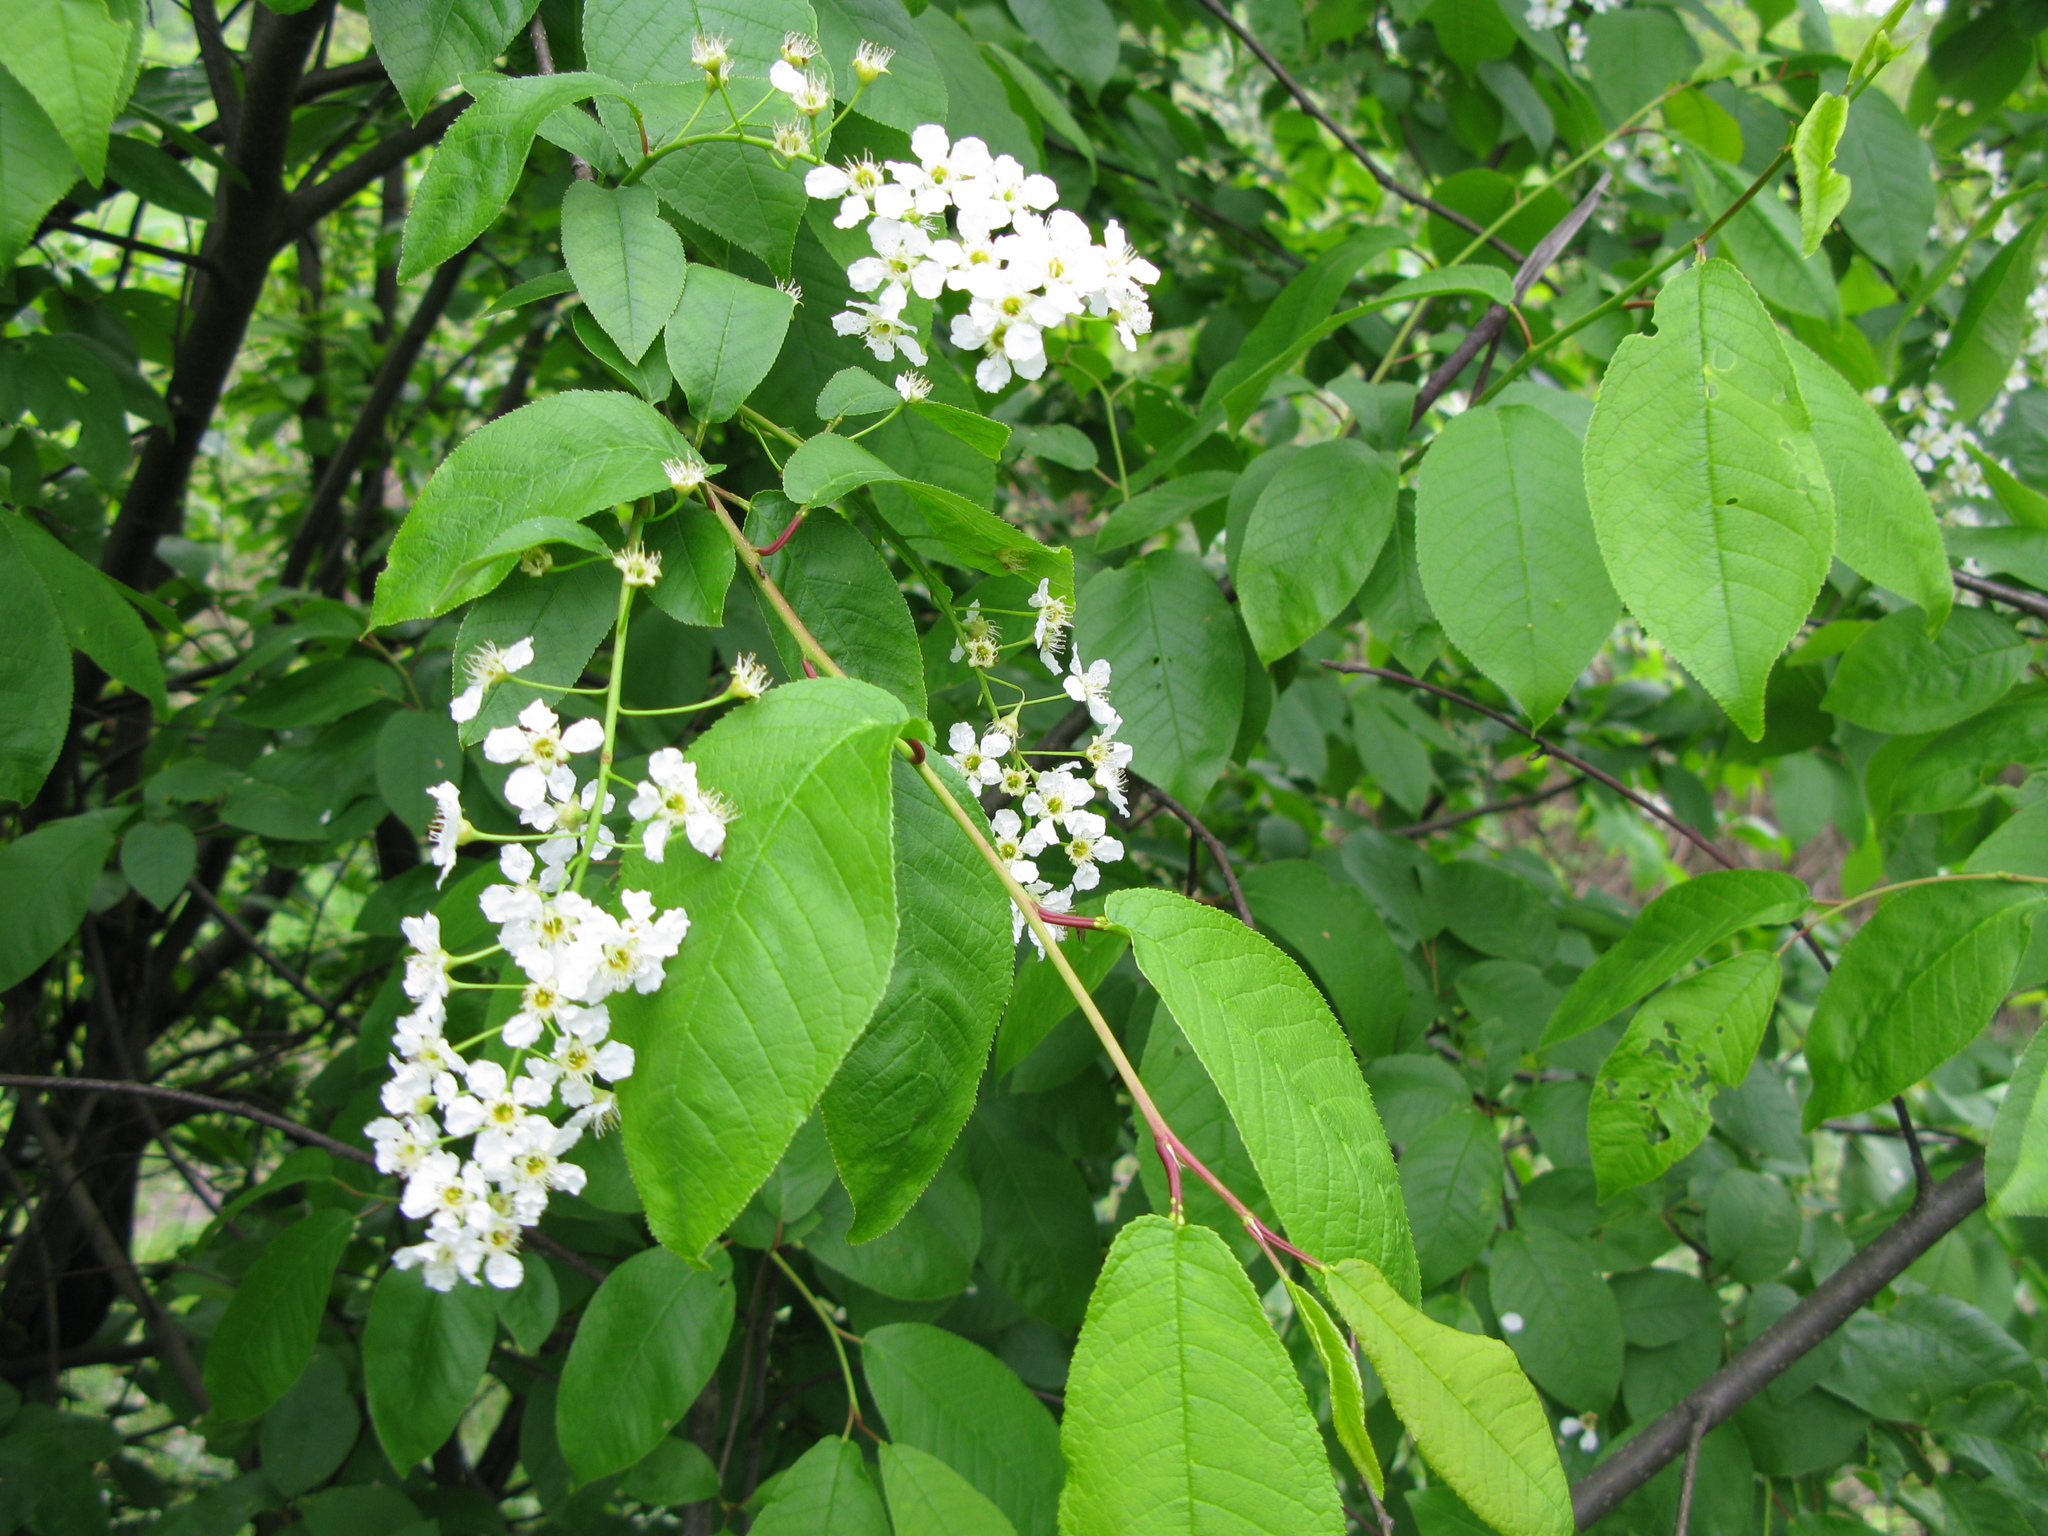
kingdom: Plantae
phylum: Tracheophyta
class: Magnoliopsida
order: Rosales
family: Rosaceae
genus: Prunus
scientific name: Prunus padus
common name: Bird cherry
